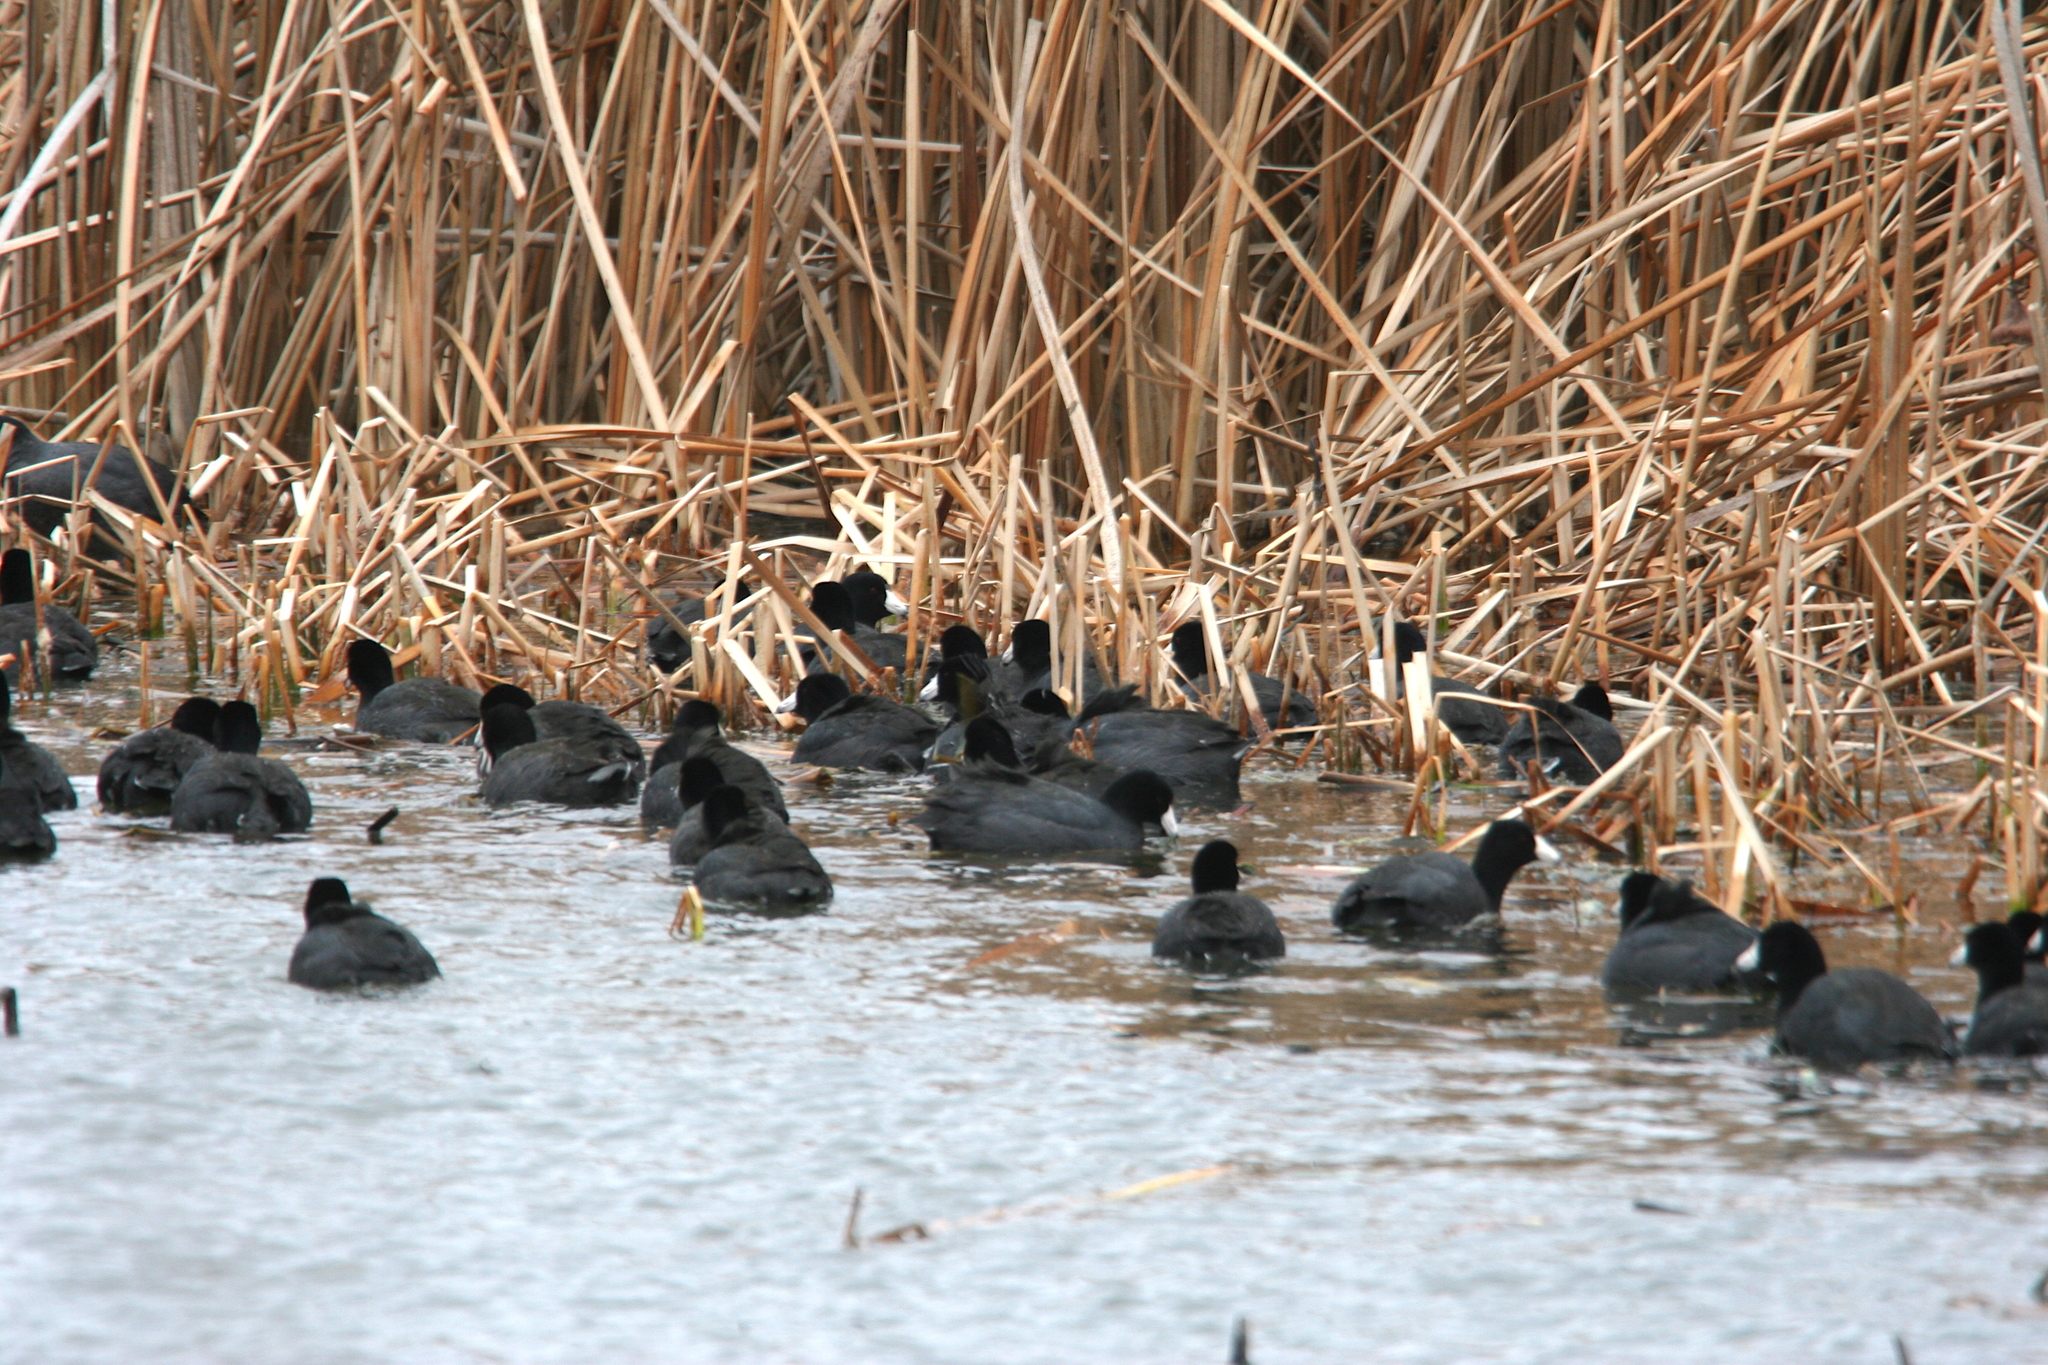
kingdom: Animalia
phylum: Chordata
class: Aves
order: Gruiformes
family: Rallidae
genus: Fulica
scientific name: Fulica americana
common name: American coot
